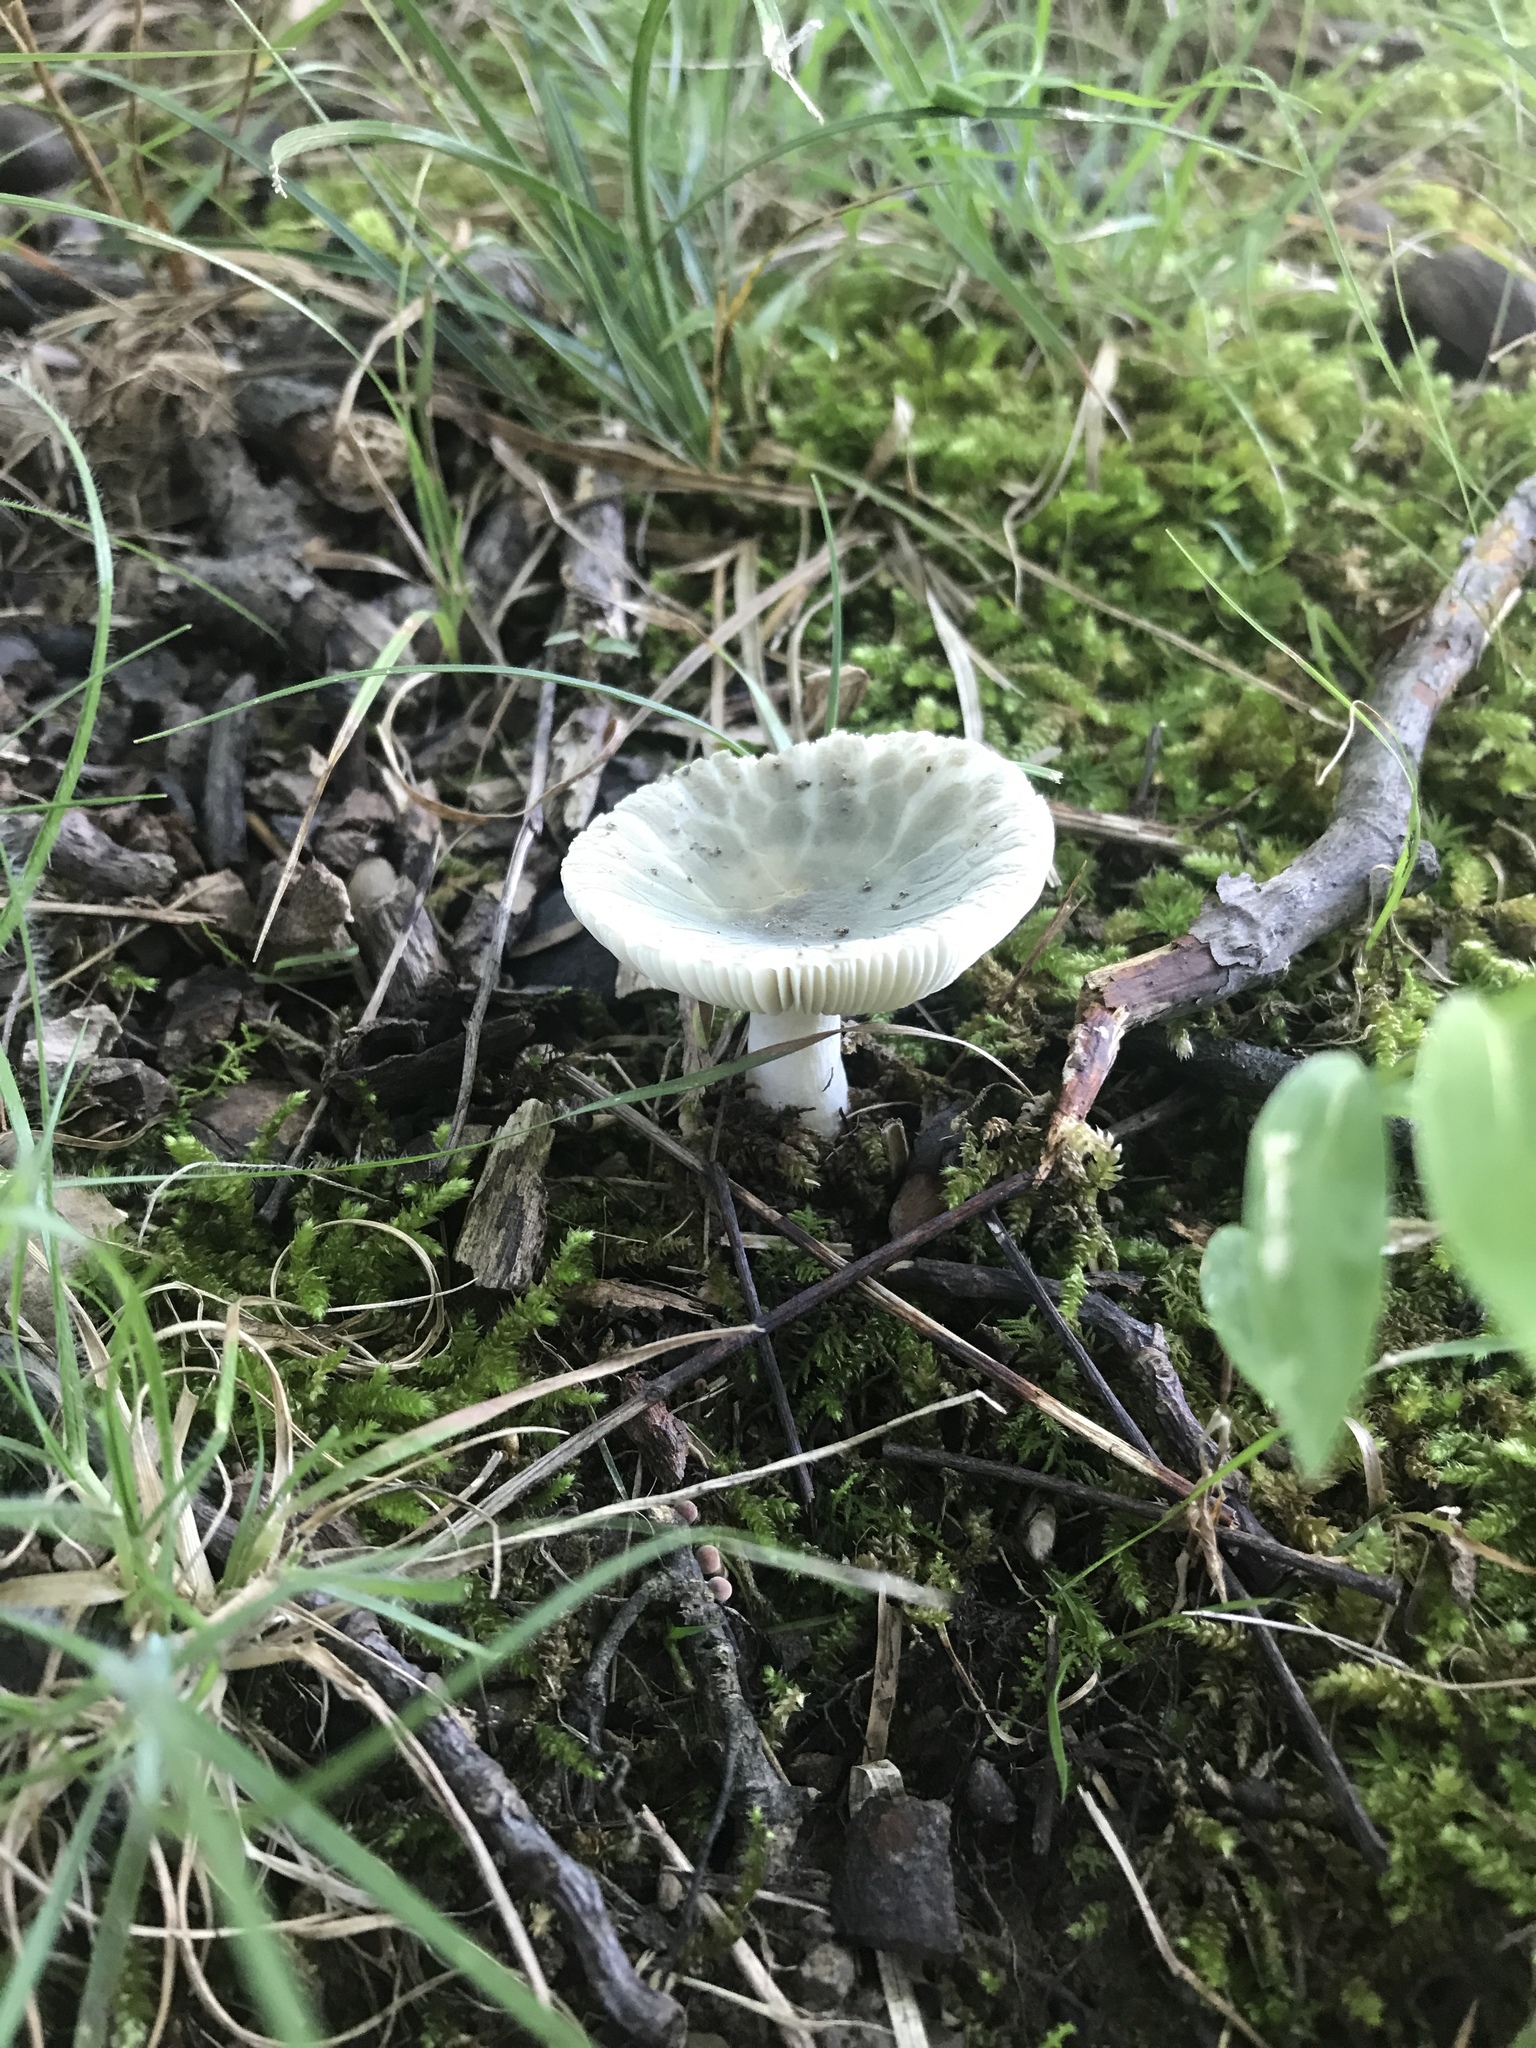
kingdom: Fungi
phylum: Basidiomycota
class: Agaricomycetes
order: Russulales
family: Russulaceae
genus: Russula
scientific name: Russula crustosa
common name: Green quilt russula
